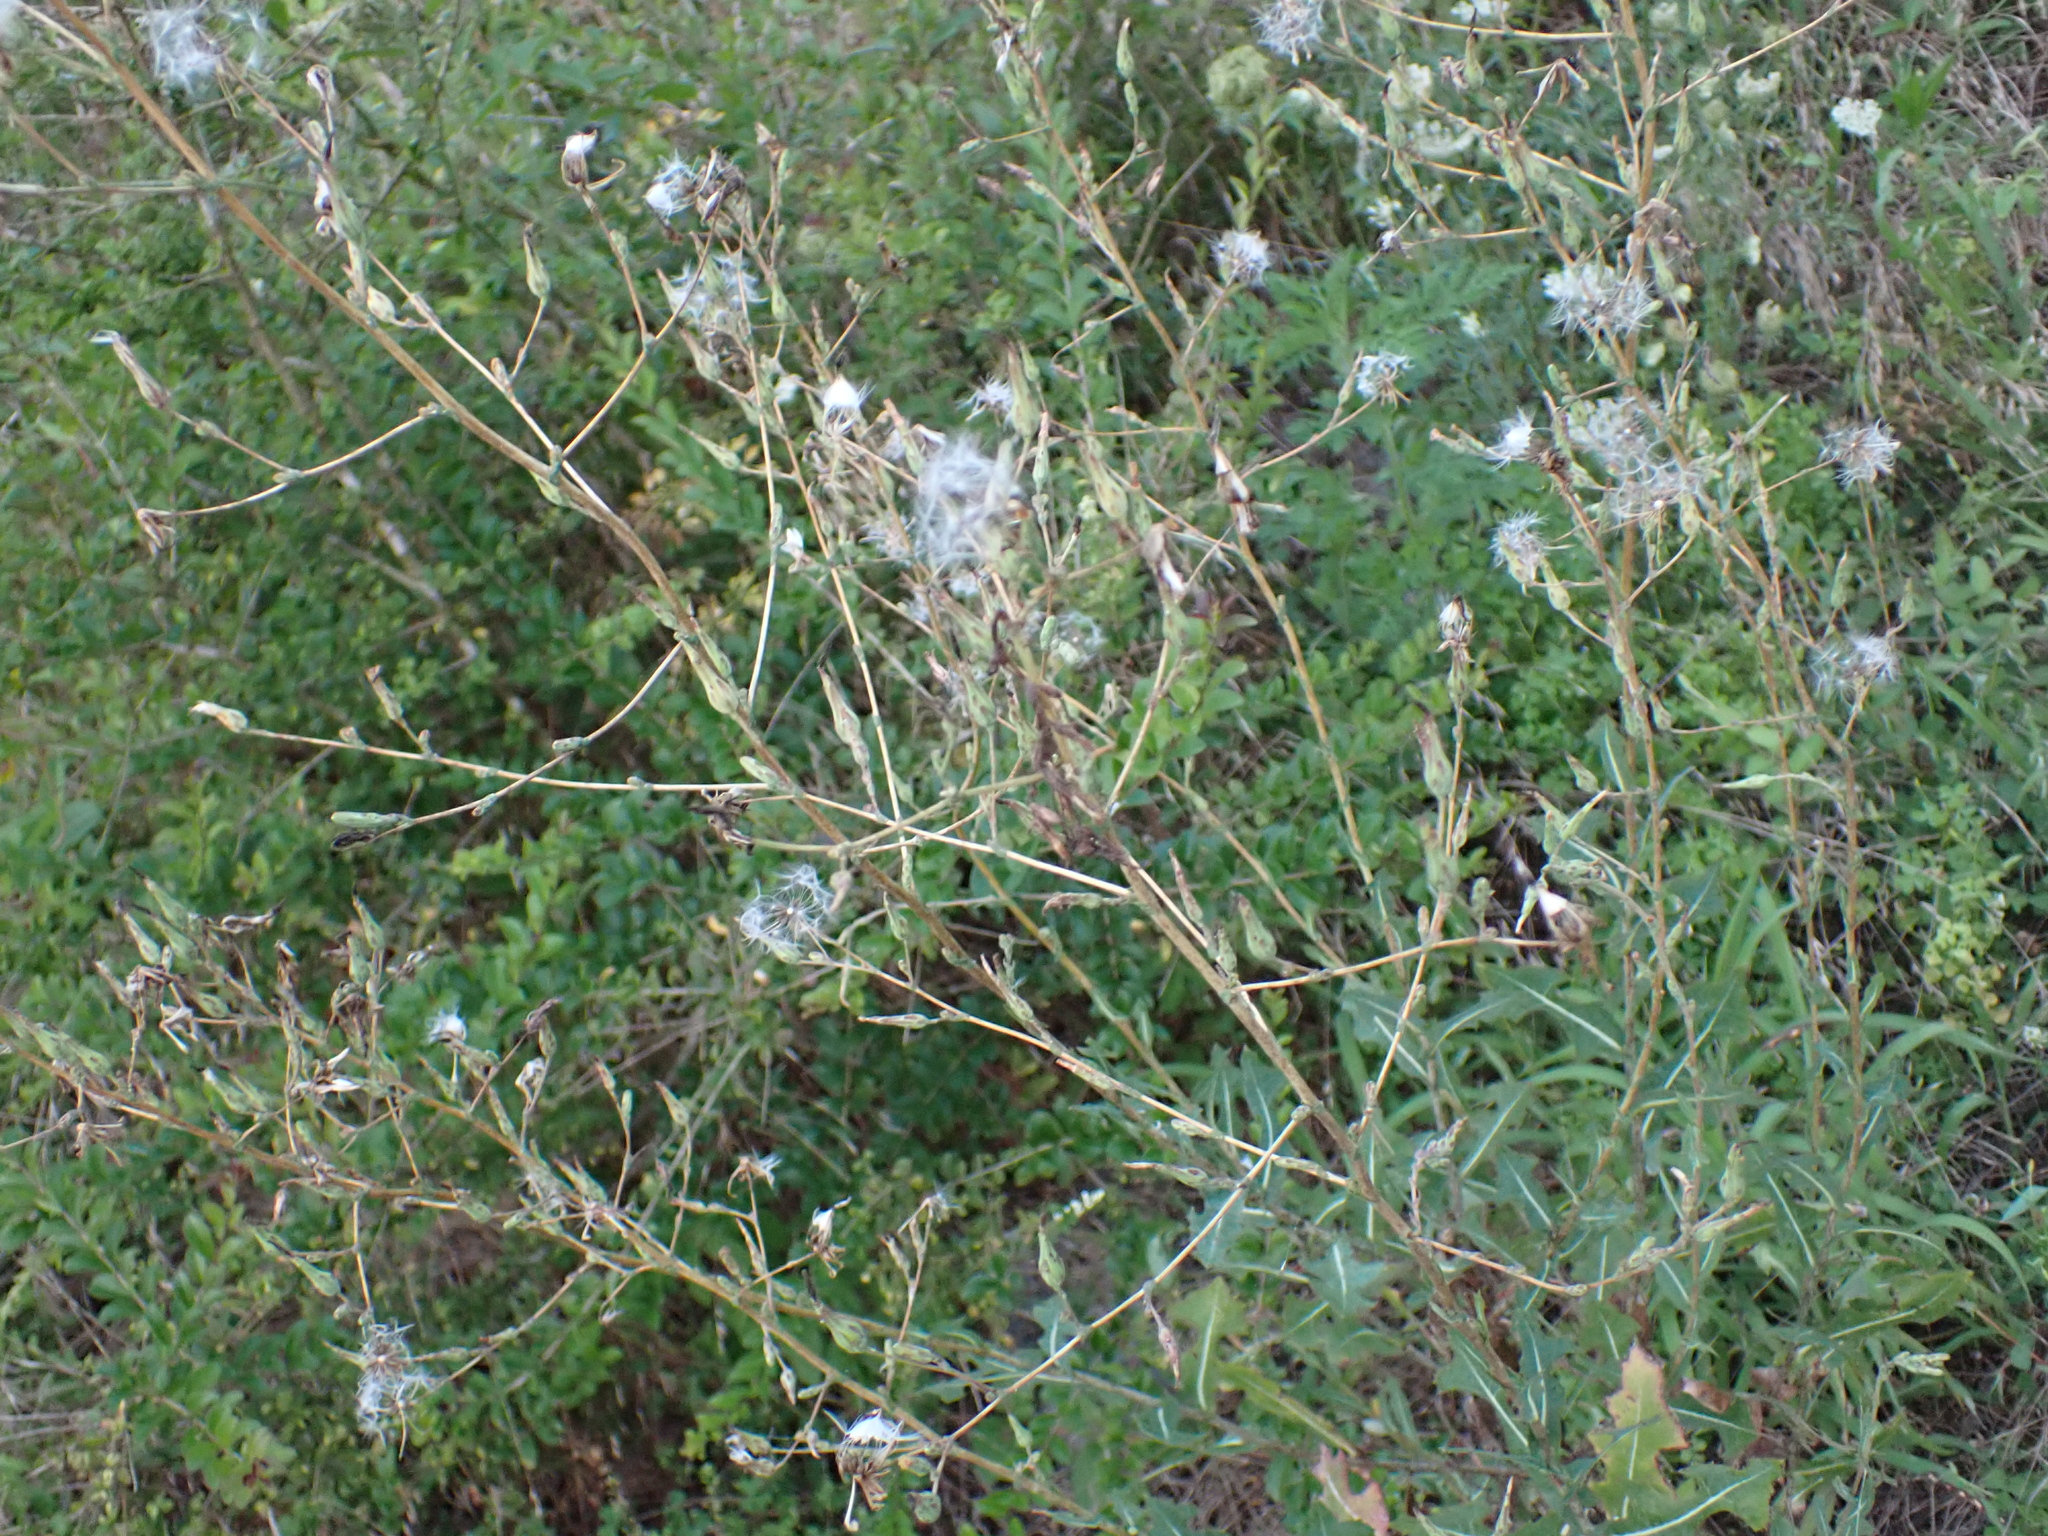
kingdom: Plantae
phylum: Tracheophyta
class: Magnoliopsida
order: Asterales
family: Asteraceae
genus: Lactuca
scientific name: Lactuca serriola
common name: Prickly lettuce
